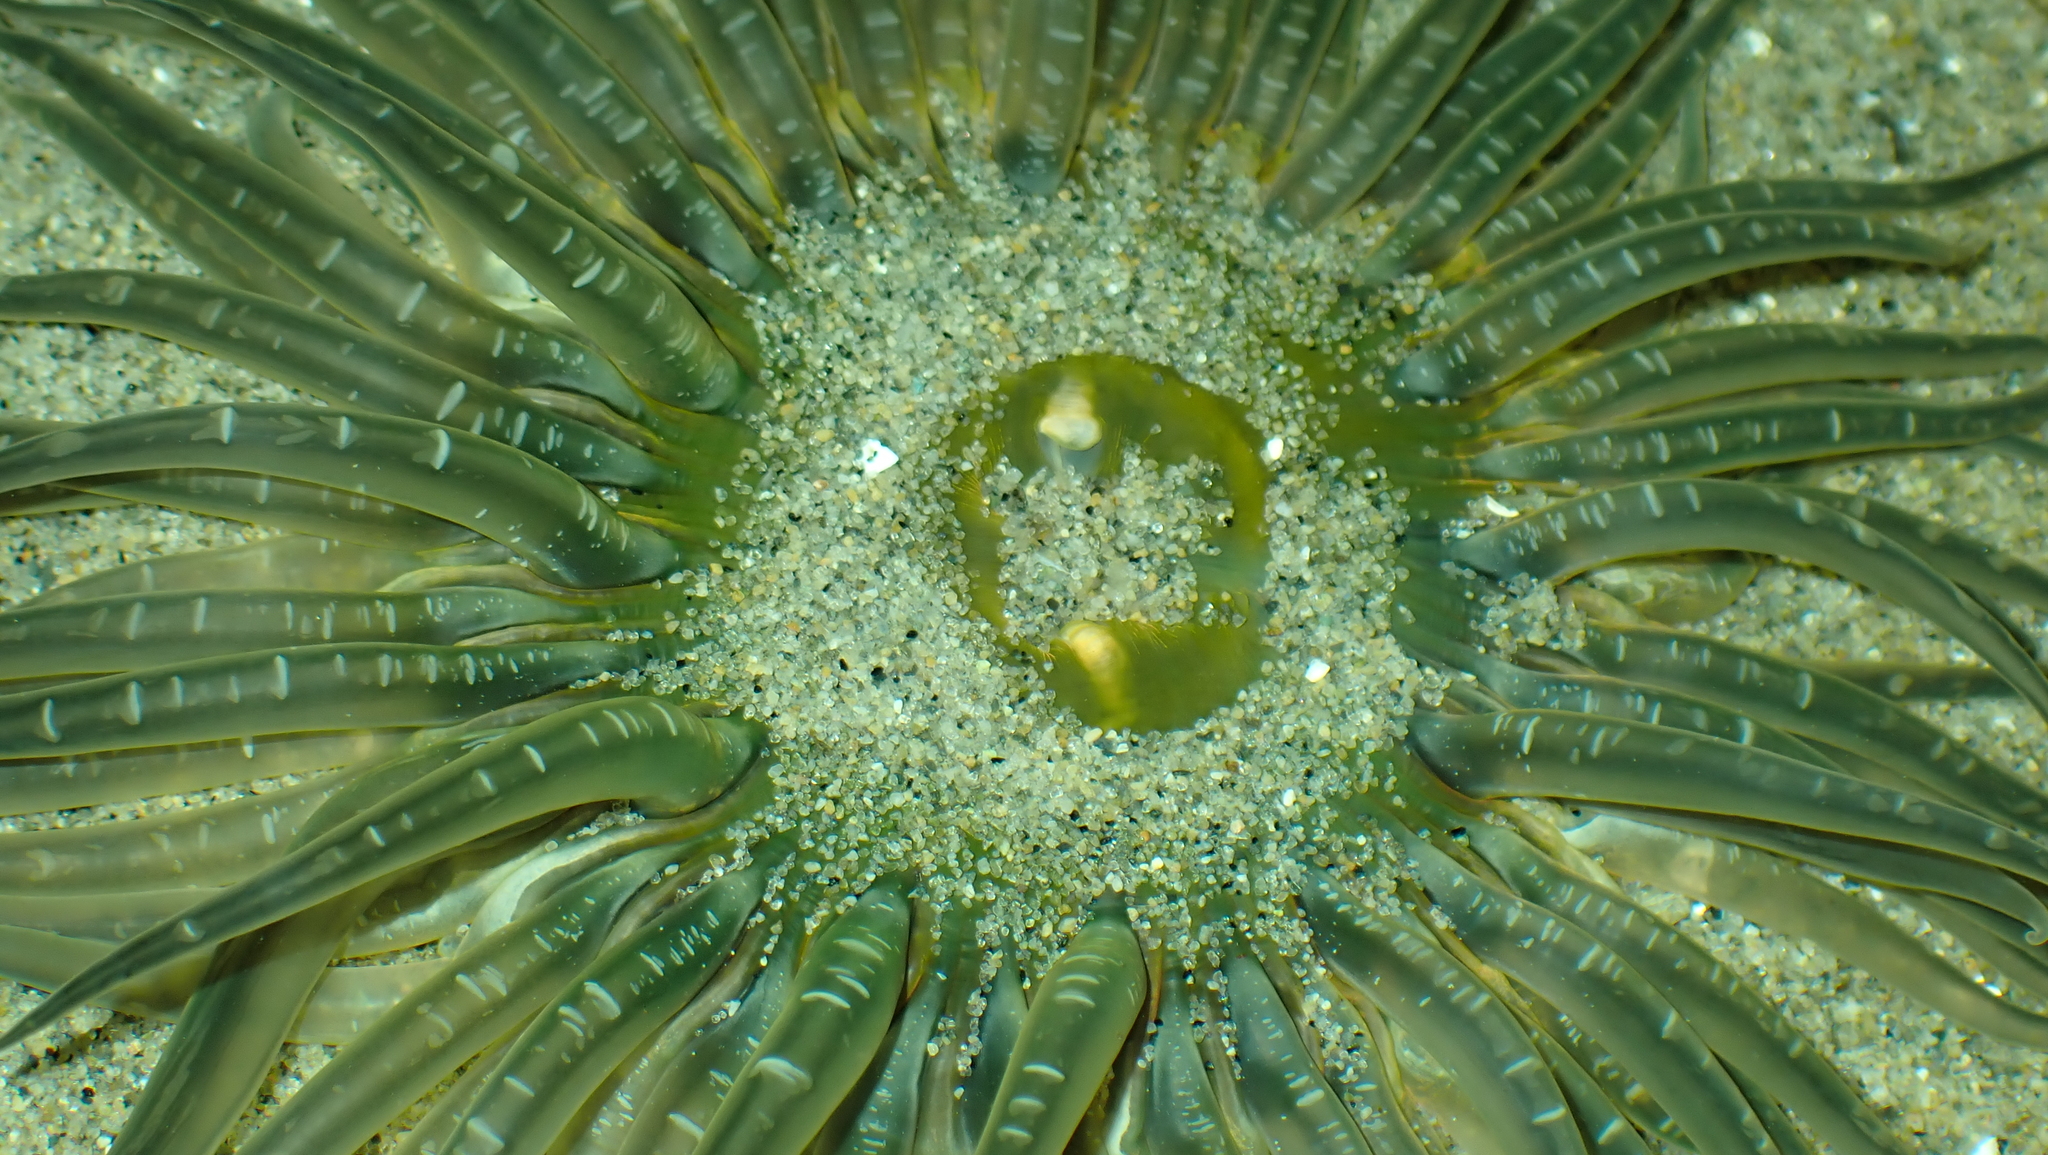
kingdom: Animalia
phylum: Cnidaria
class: Anthozoa
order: Actiniaria
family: Actiniidae
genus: Anthopleura
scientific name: Anthopleura artemisia
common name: Buried sea anemone
